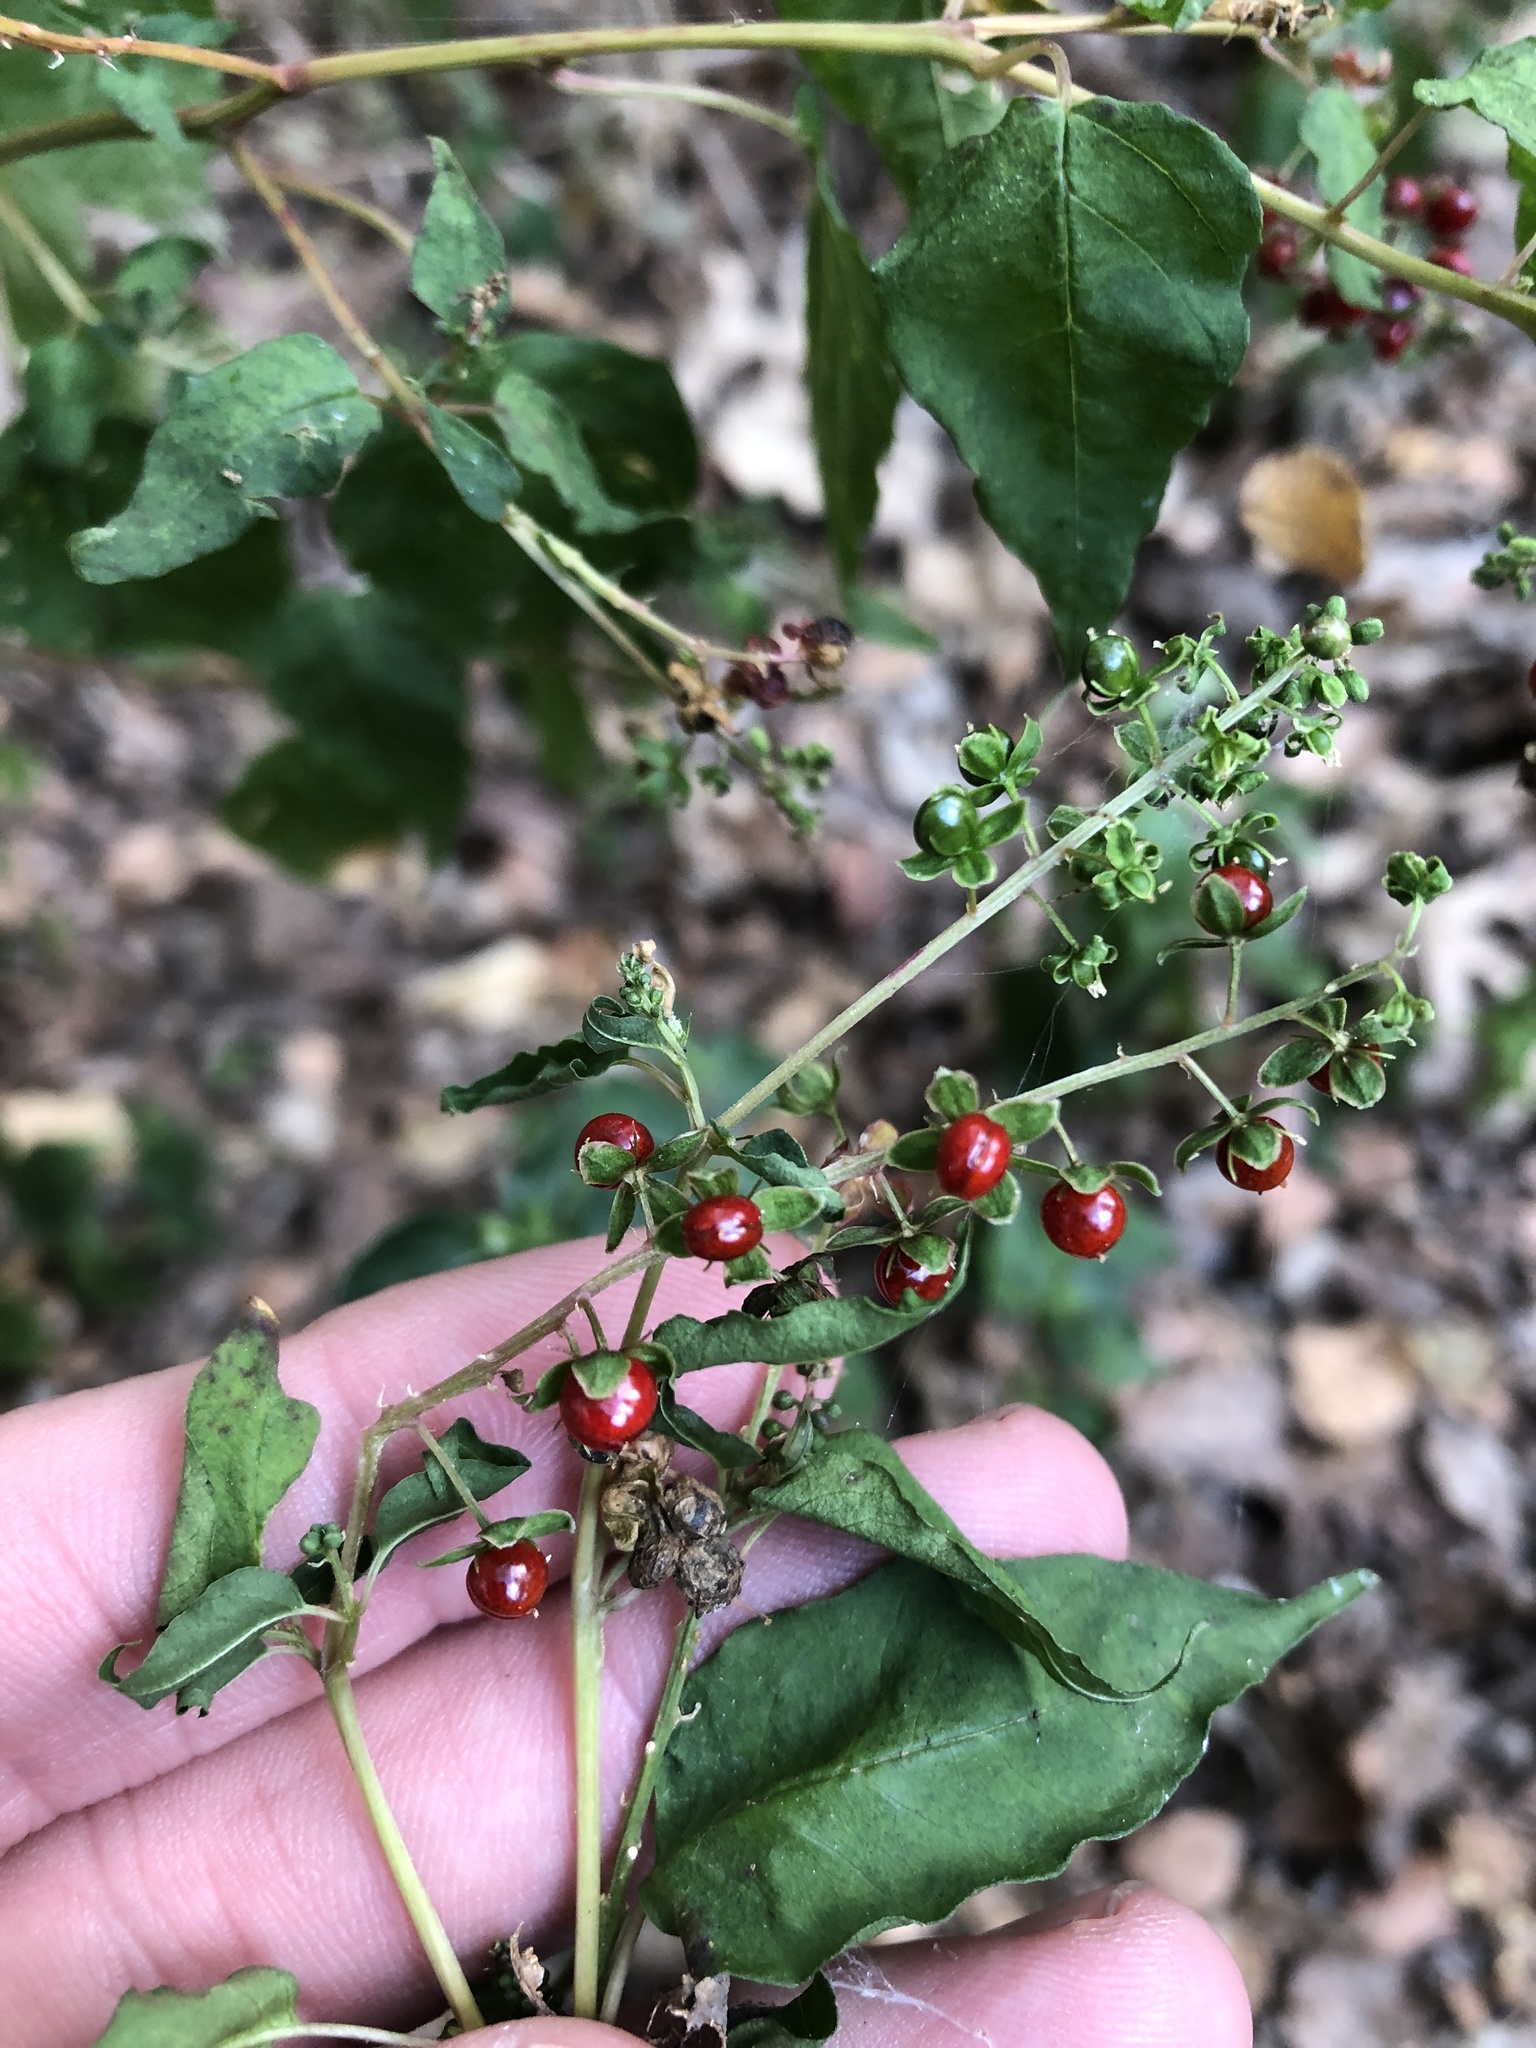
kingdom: Plantae
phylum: Tracheophyta
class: Magnoliopsida
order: Caryophyllales
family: Phytolaccaceae
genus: Rivina
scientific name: Rivina humilis
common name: Rougeplant
